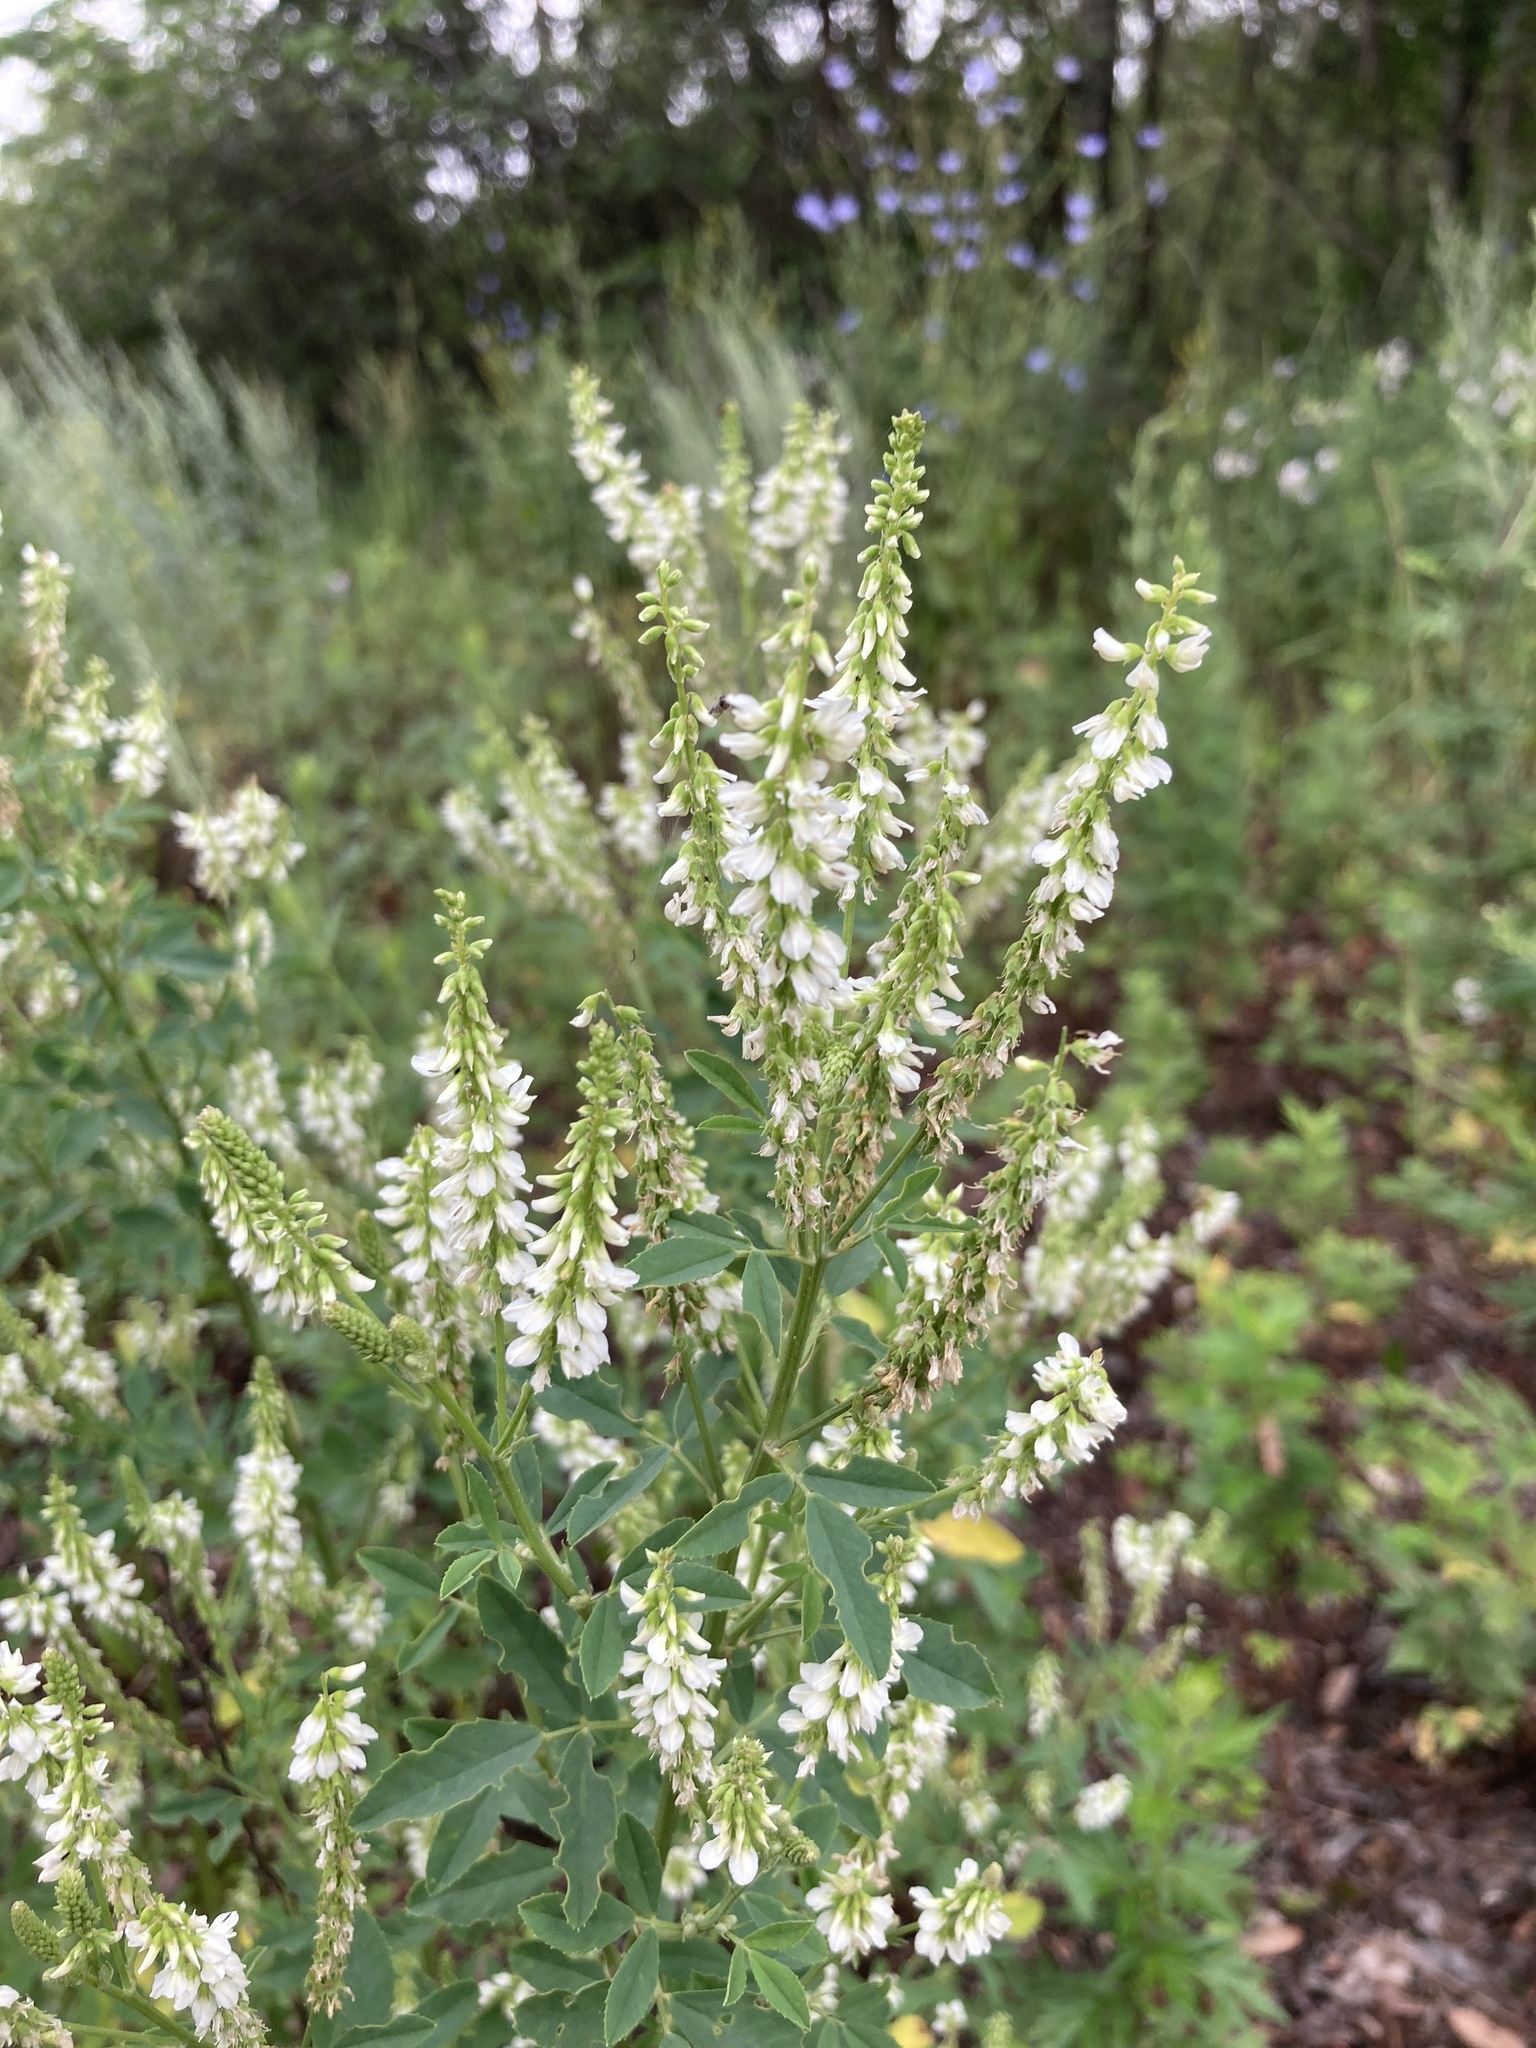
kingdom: Plantae
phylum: Tracheophyta
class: Magnoliopsida
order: Fabales
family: Fabaceae
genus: Melilotus
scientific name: Melilotus albus
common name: White melilot
